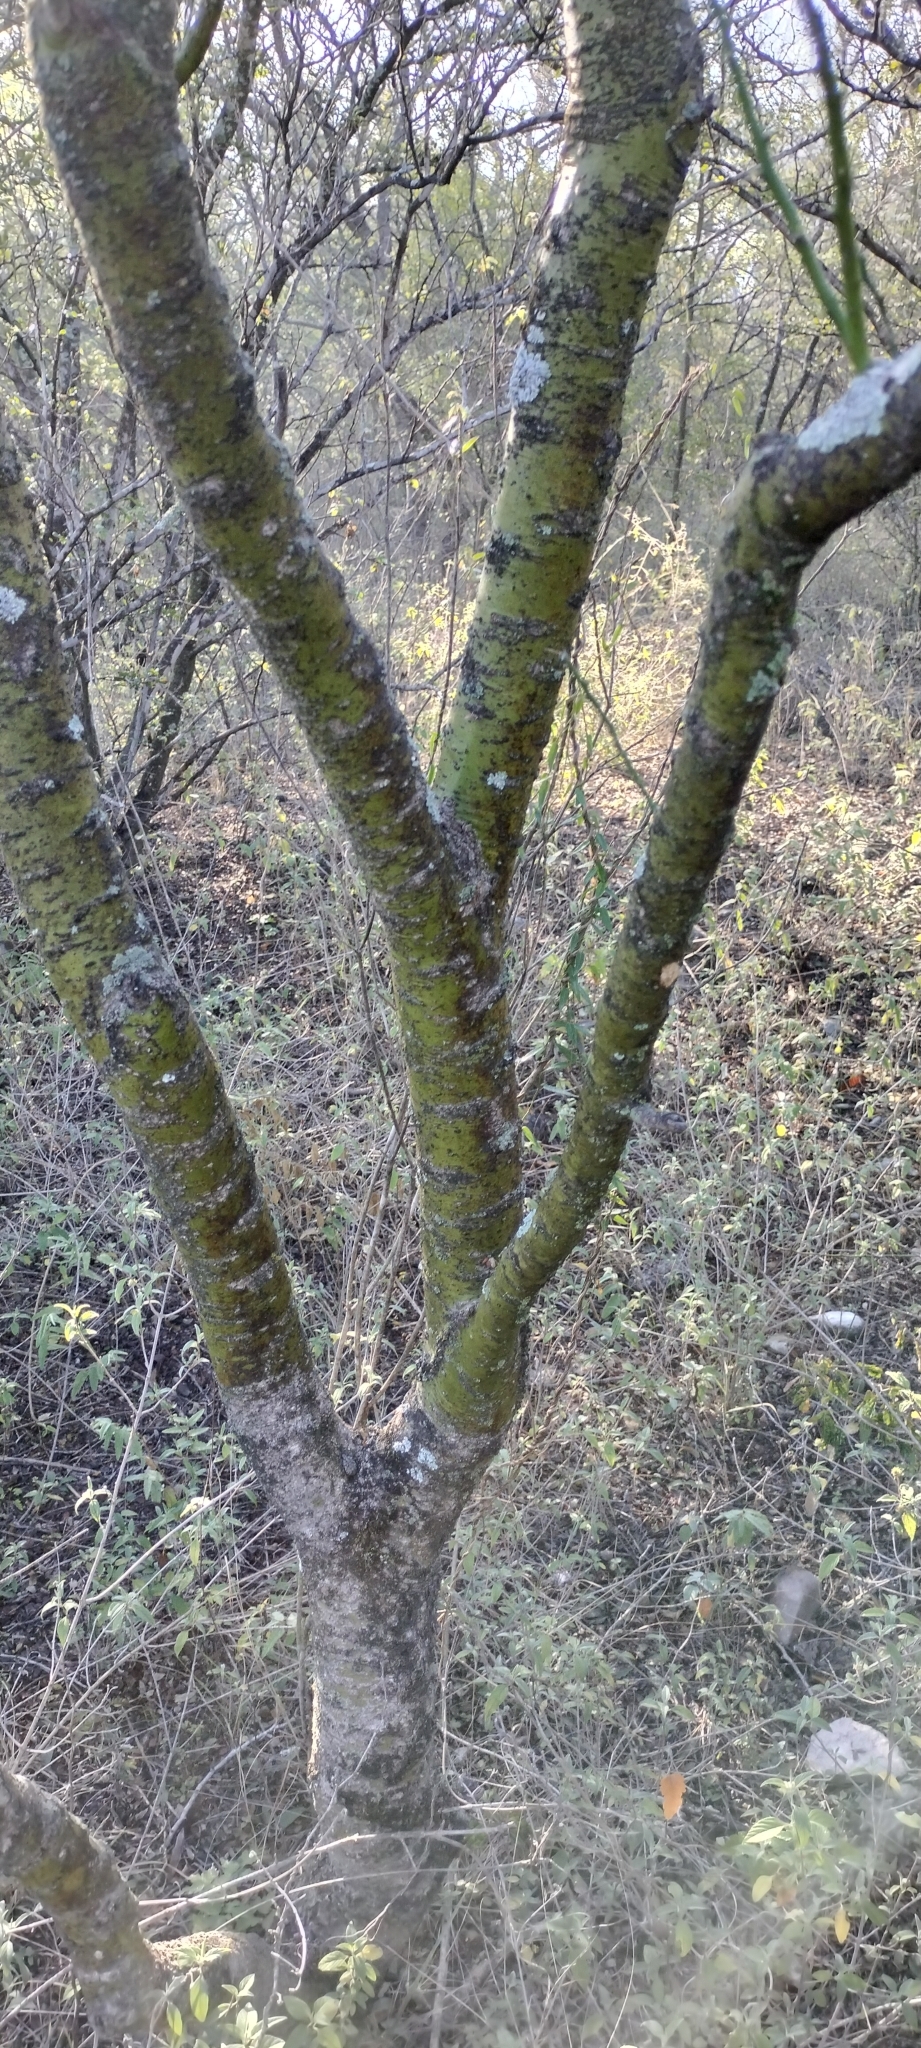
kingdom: Plantae
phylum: Tracheophyta
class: Magnoliopsida
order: Fabales
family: Fabaceae
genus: Parkinsonia
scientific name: Parkinsonia texana
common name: Texas paloverde
